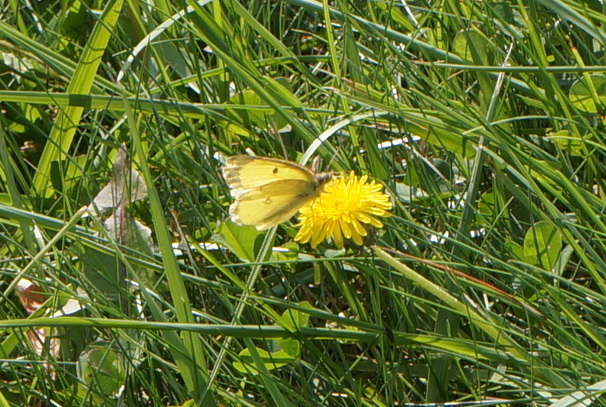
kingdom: Animalia
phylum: Arthropoda
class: Insecta
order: Lepidoptera
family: Pieridae
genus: Colias
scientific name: Colias philodice
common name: Clouded sulphur
